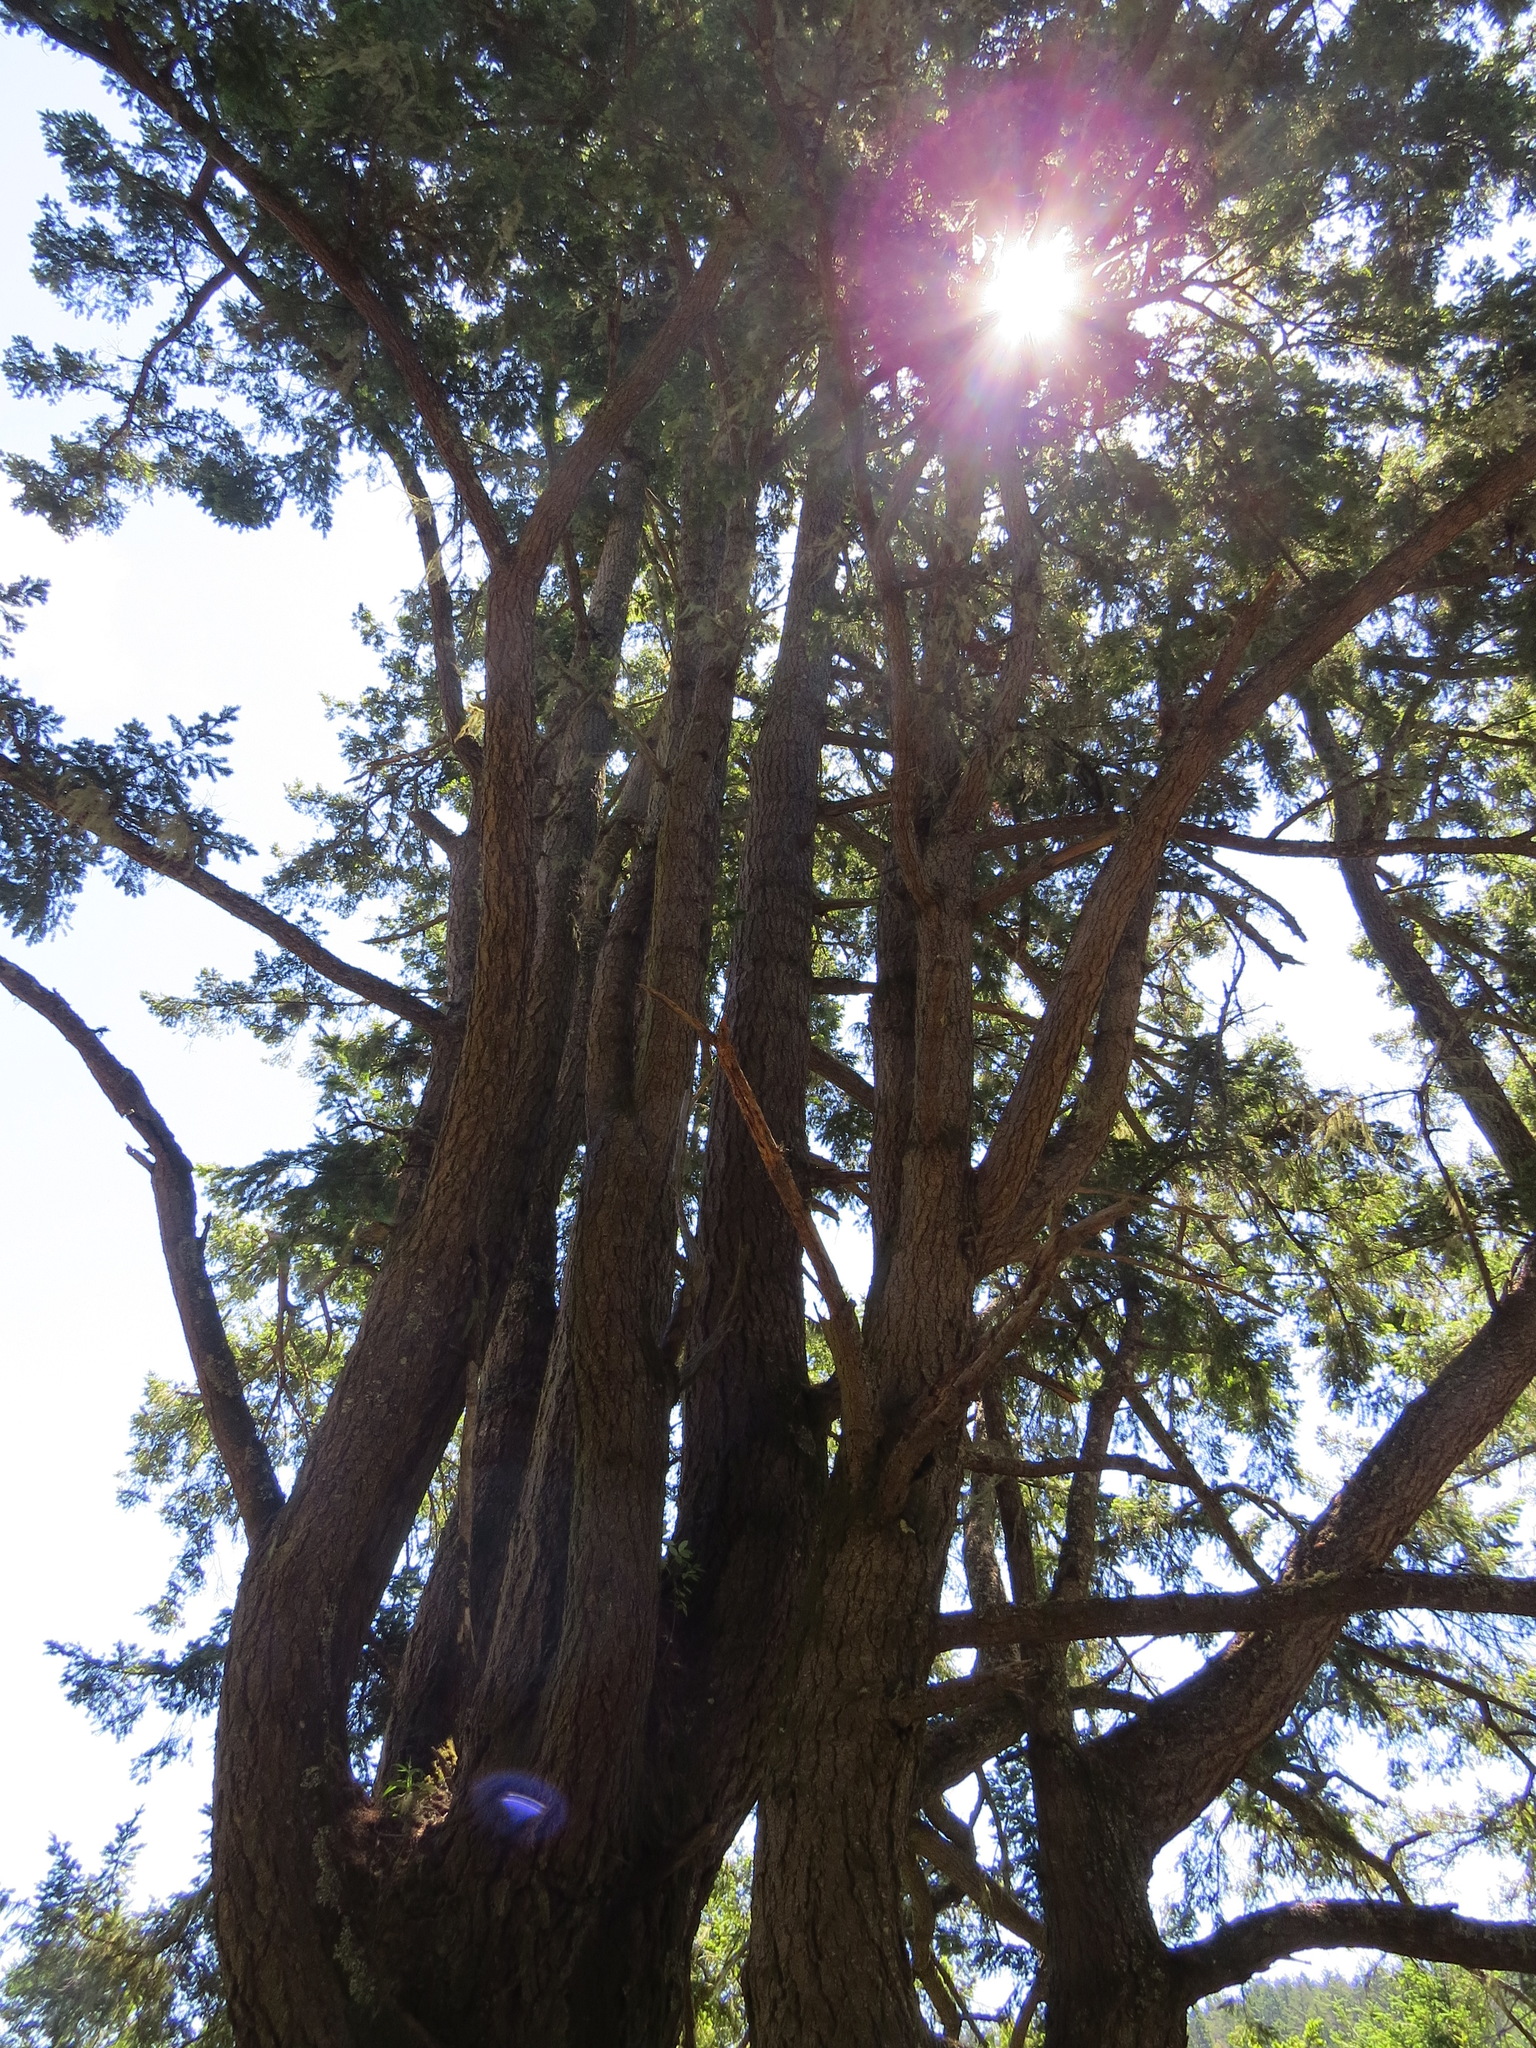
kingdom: Plantae
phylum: Tracheophyta
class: Pinopsida
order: Pinales
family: Pinaceae
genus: Pseudotsuga
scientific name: Pseudotsuga menziesii
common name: Douglas fir
